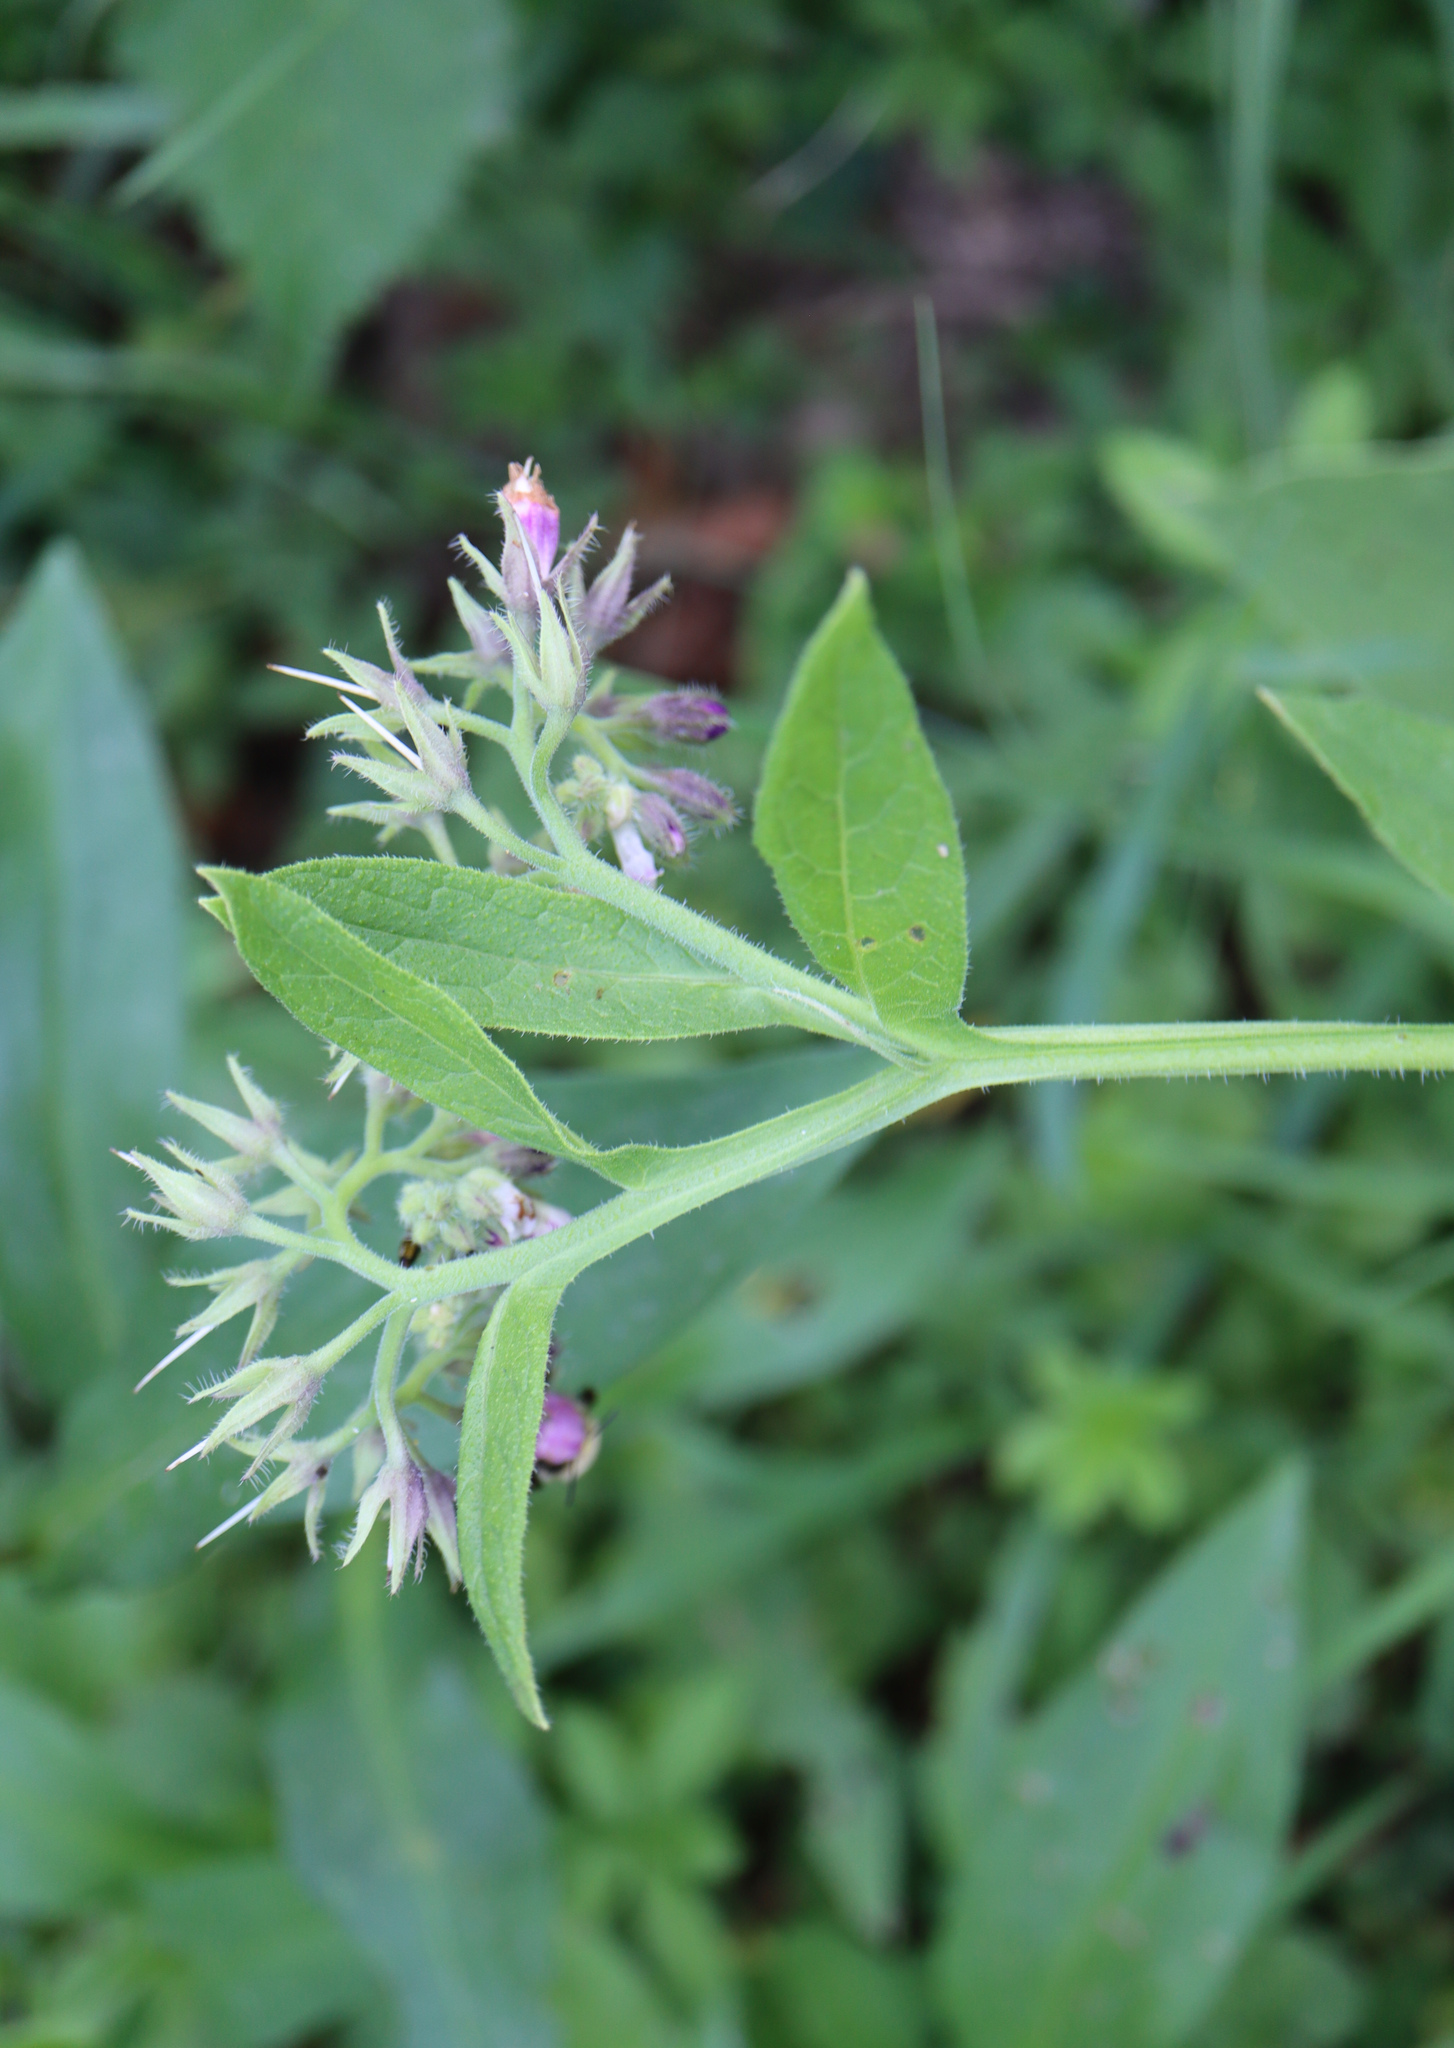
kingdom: Plantae
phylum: Tracheophyta
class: Magnoliopsida
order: Boraginales
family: Boraginaceae
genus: Symphytum
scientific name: Symphytum officinale
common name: Common comfrey
